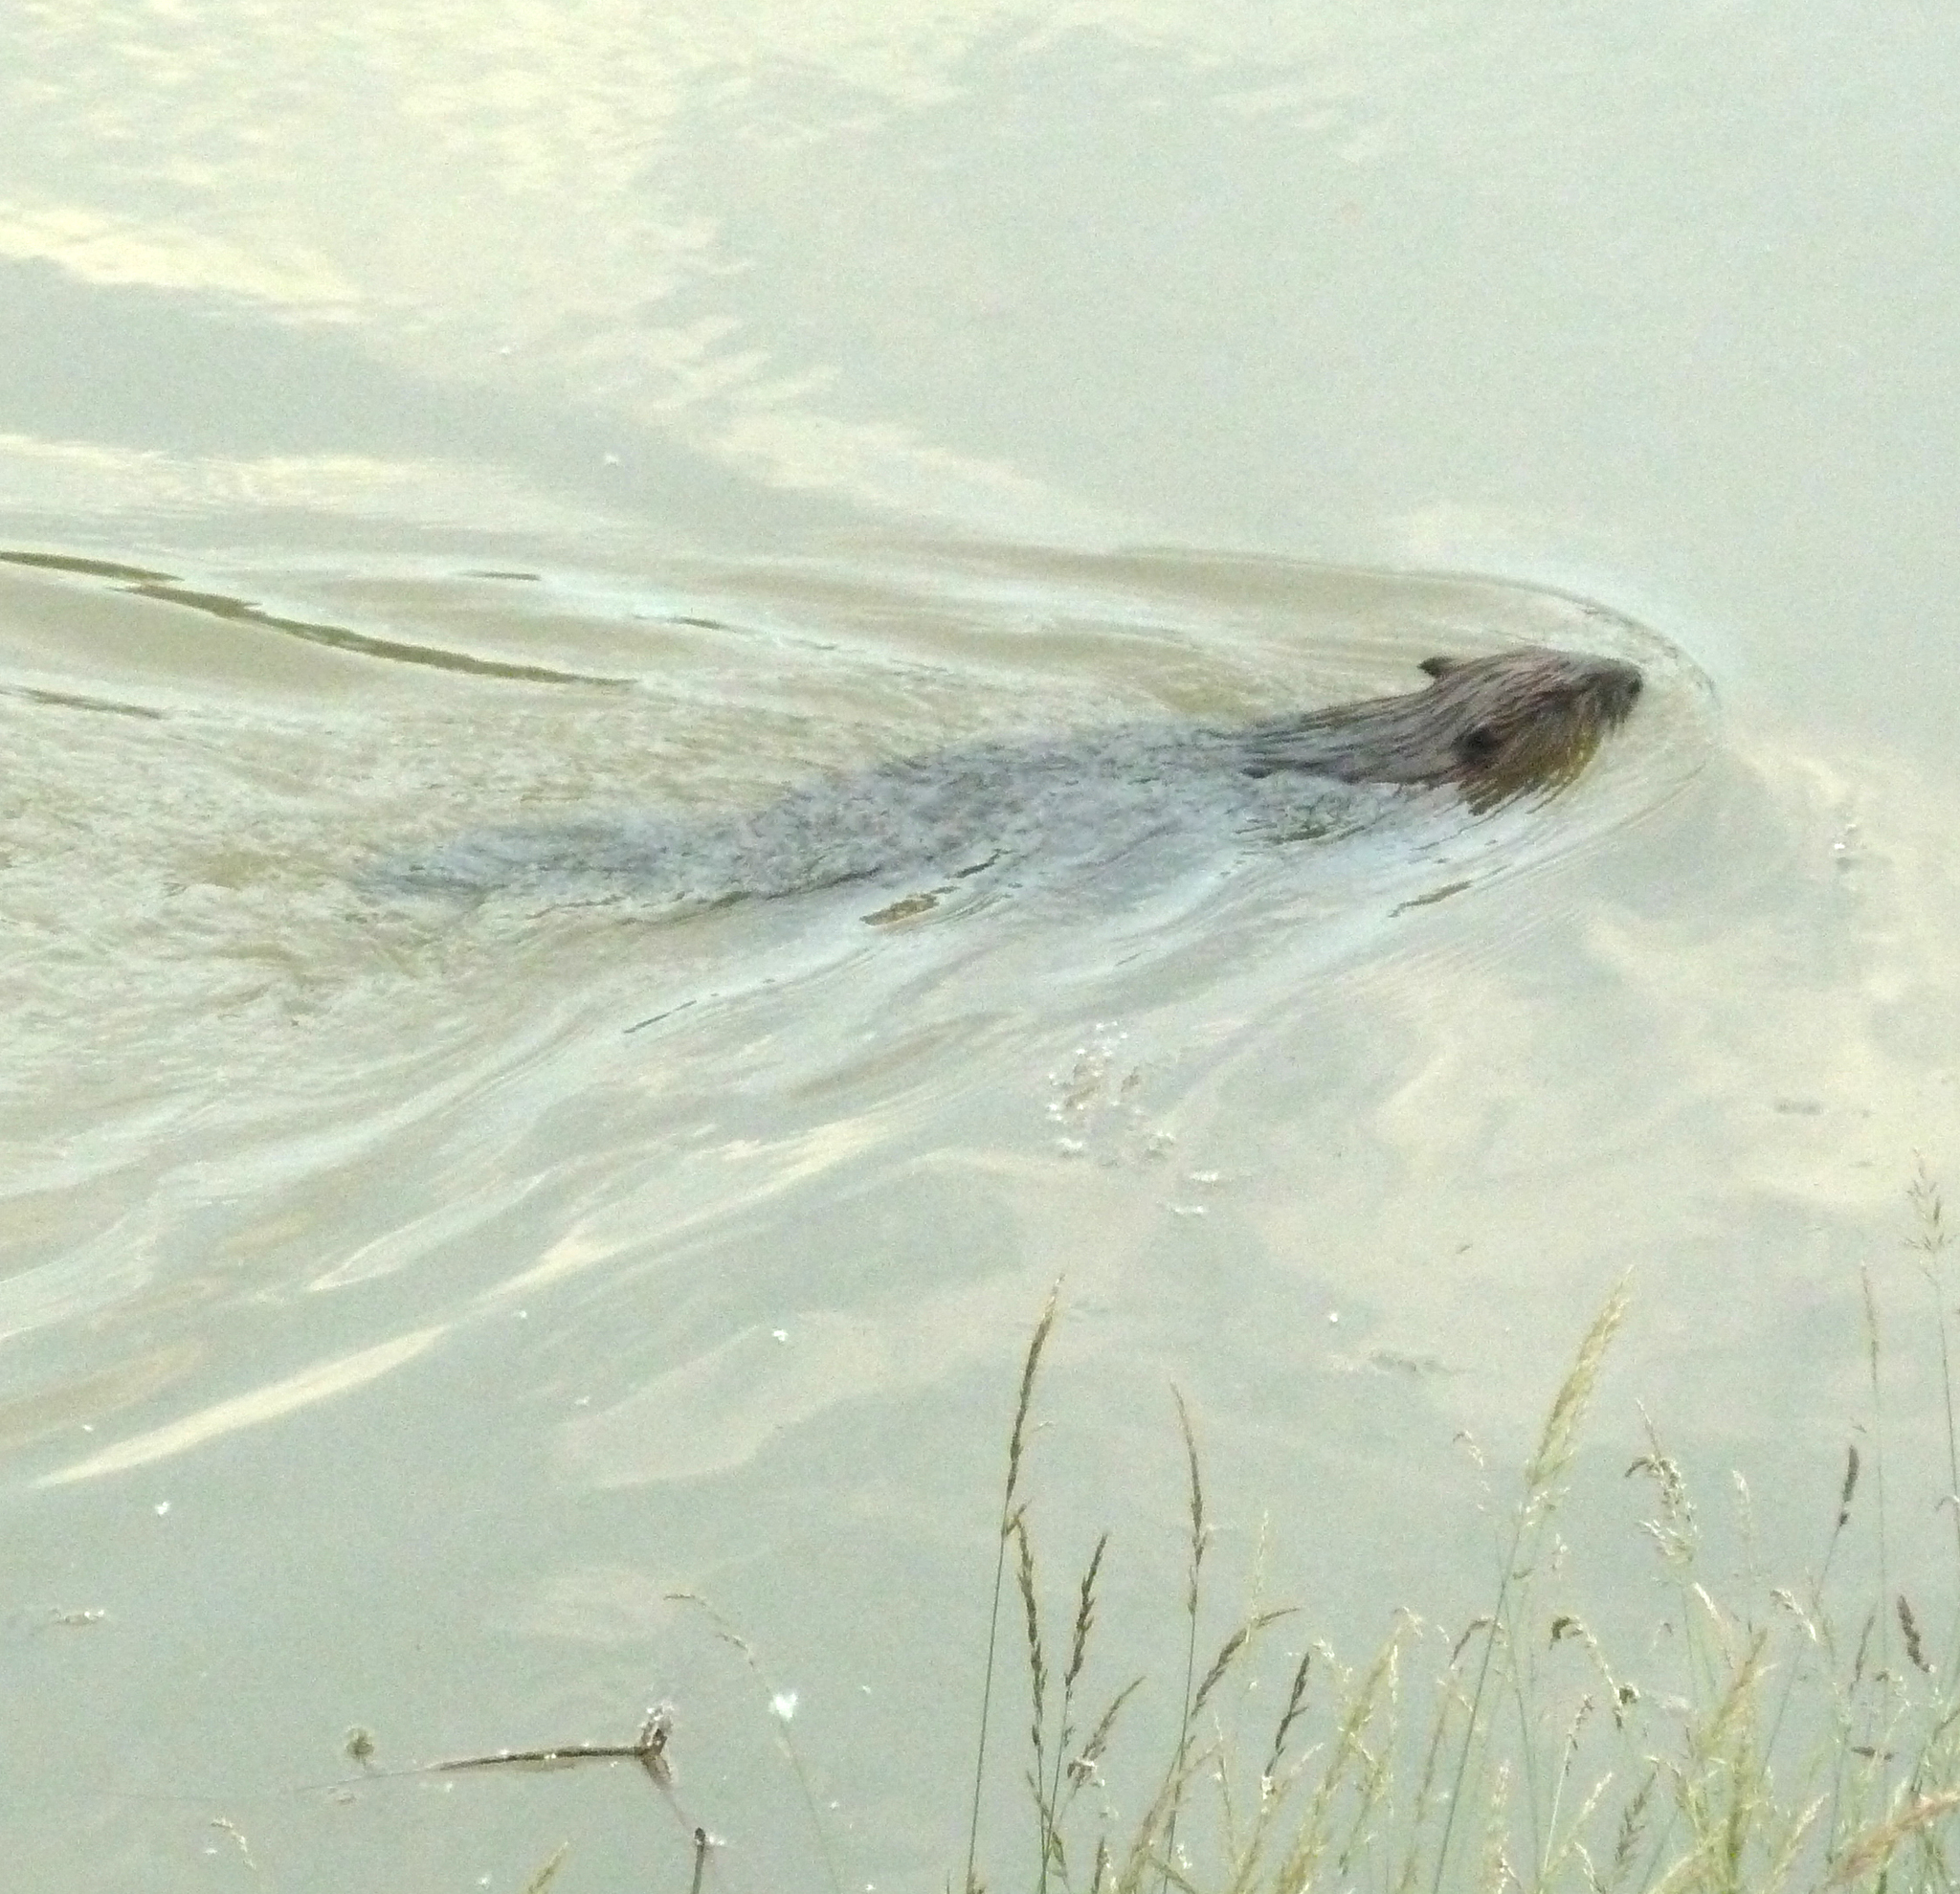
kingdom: Animalia
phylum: Chordata
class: Mammalia
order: Rodentia
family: Castoridae
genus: Castor
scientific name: Castor fiber
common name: Eurasian beaver
